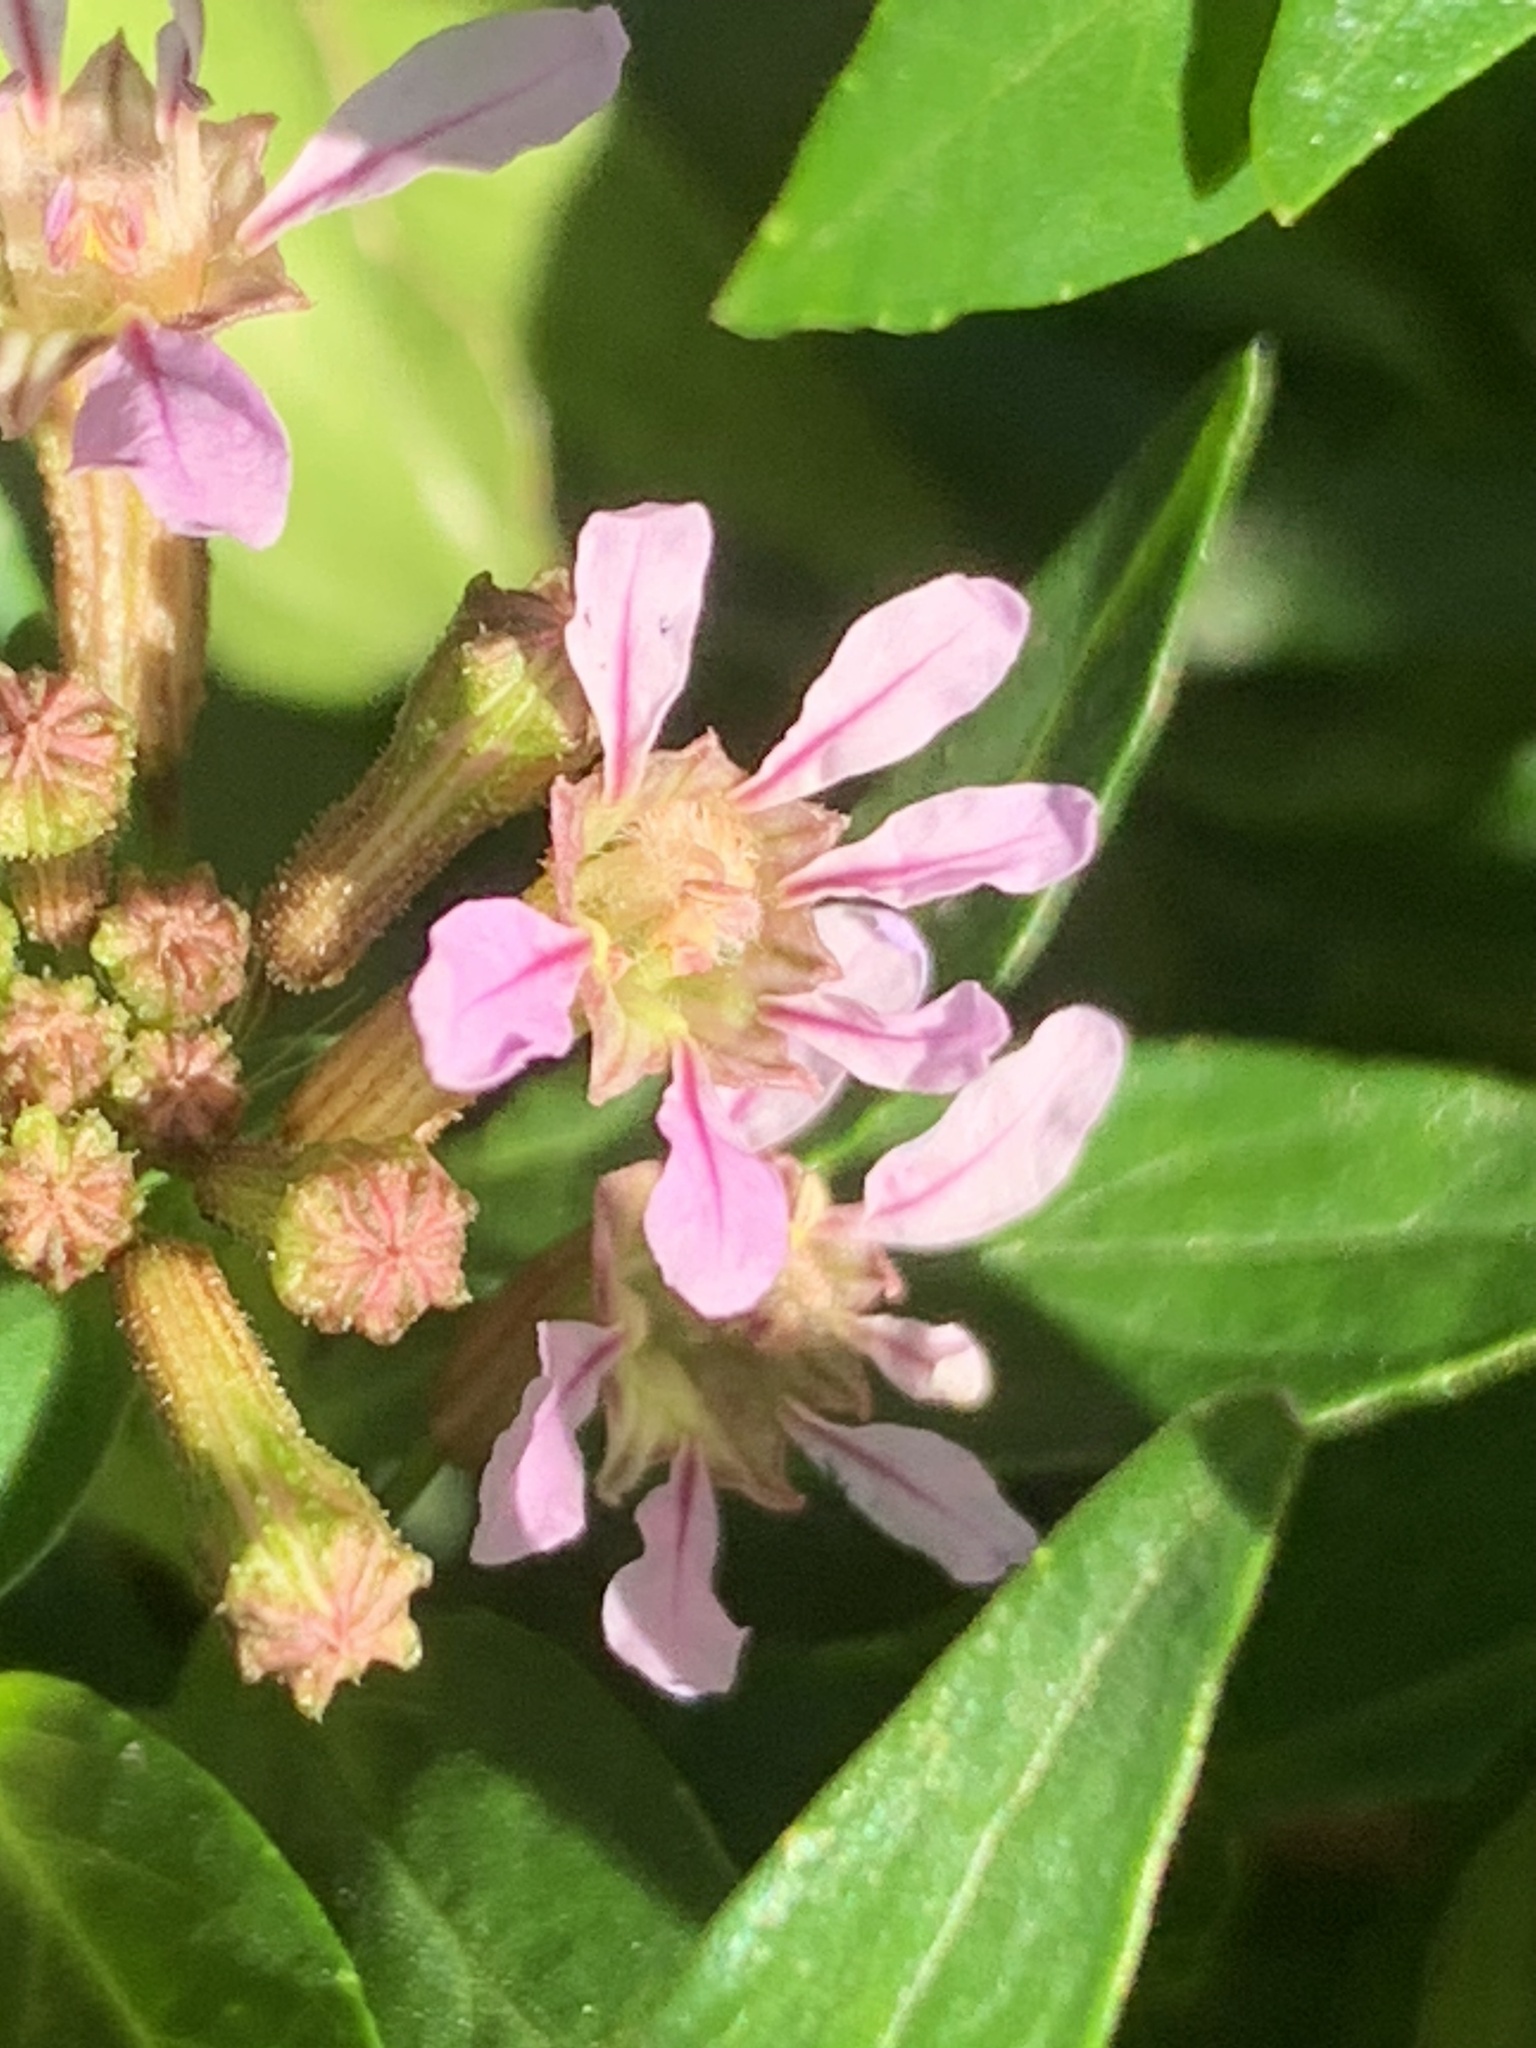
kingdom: Plantae
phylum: Tracheophyta
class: Magnoliopsida
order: Myrtales
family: Lythraceae
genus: Cuphea
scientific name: Cuphea fruticosa
